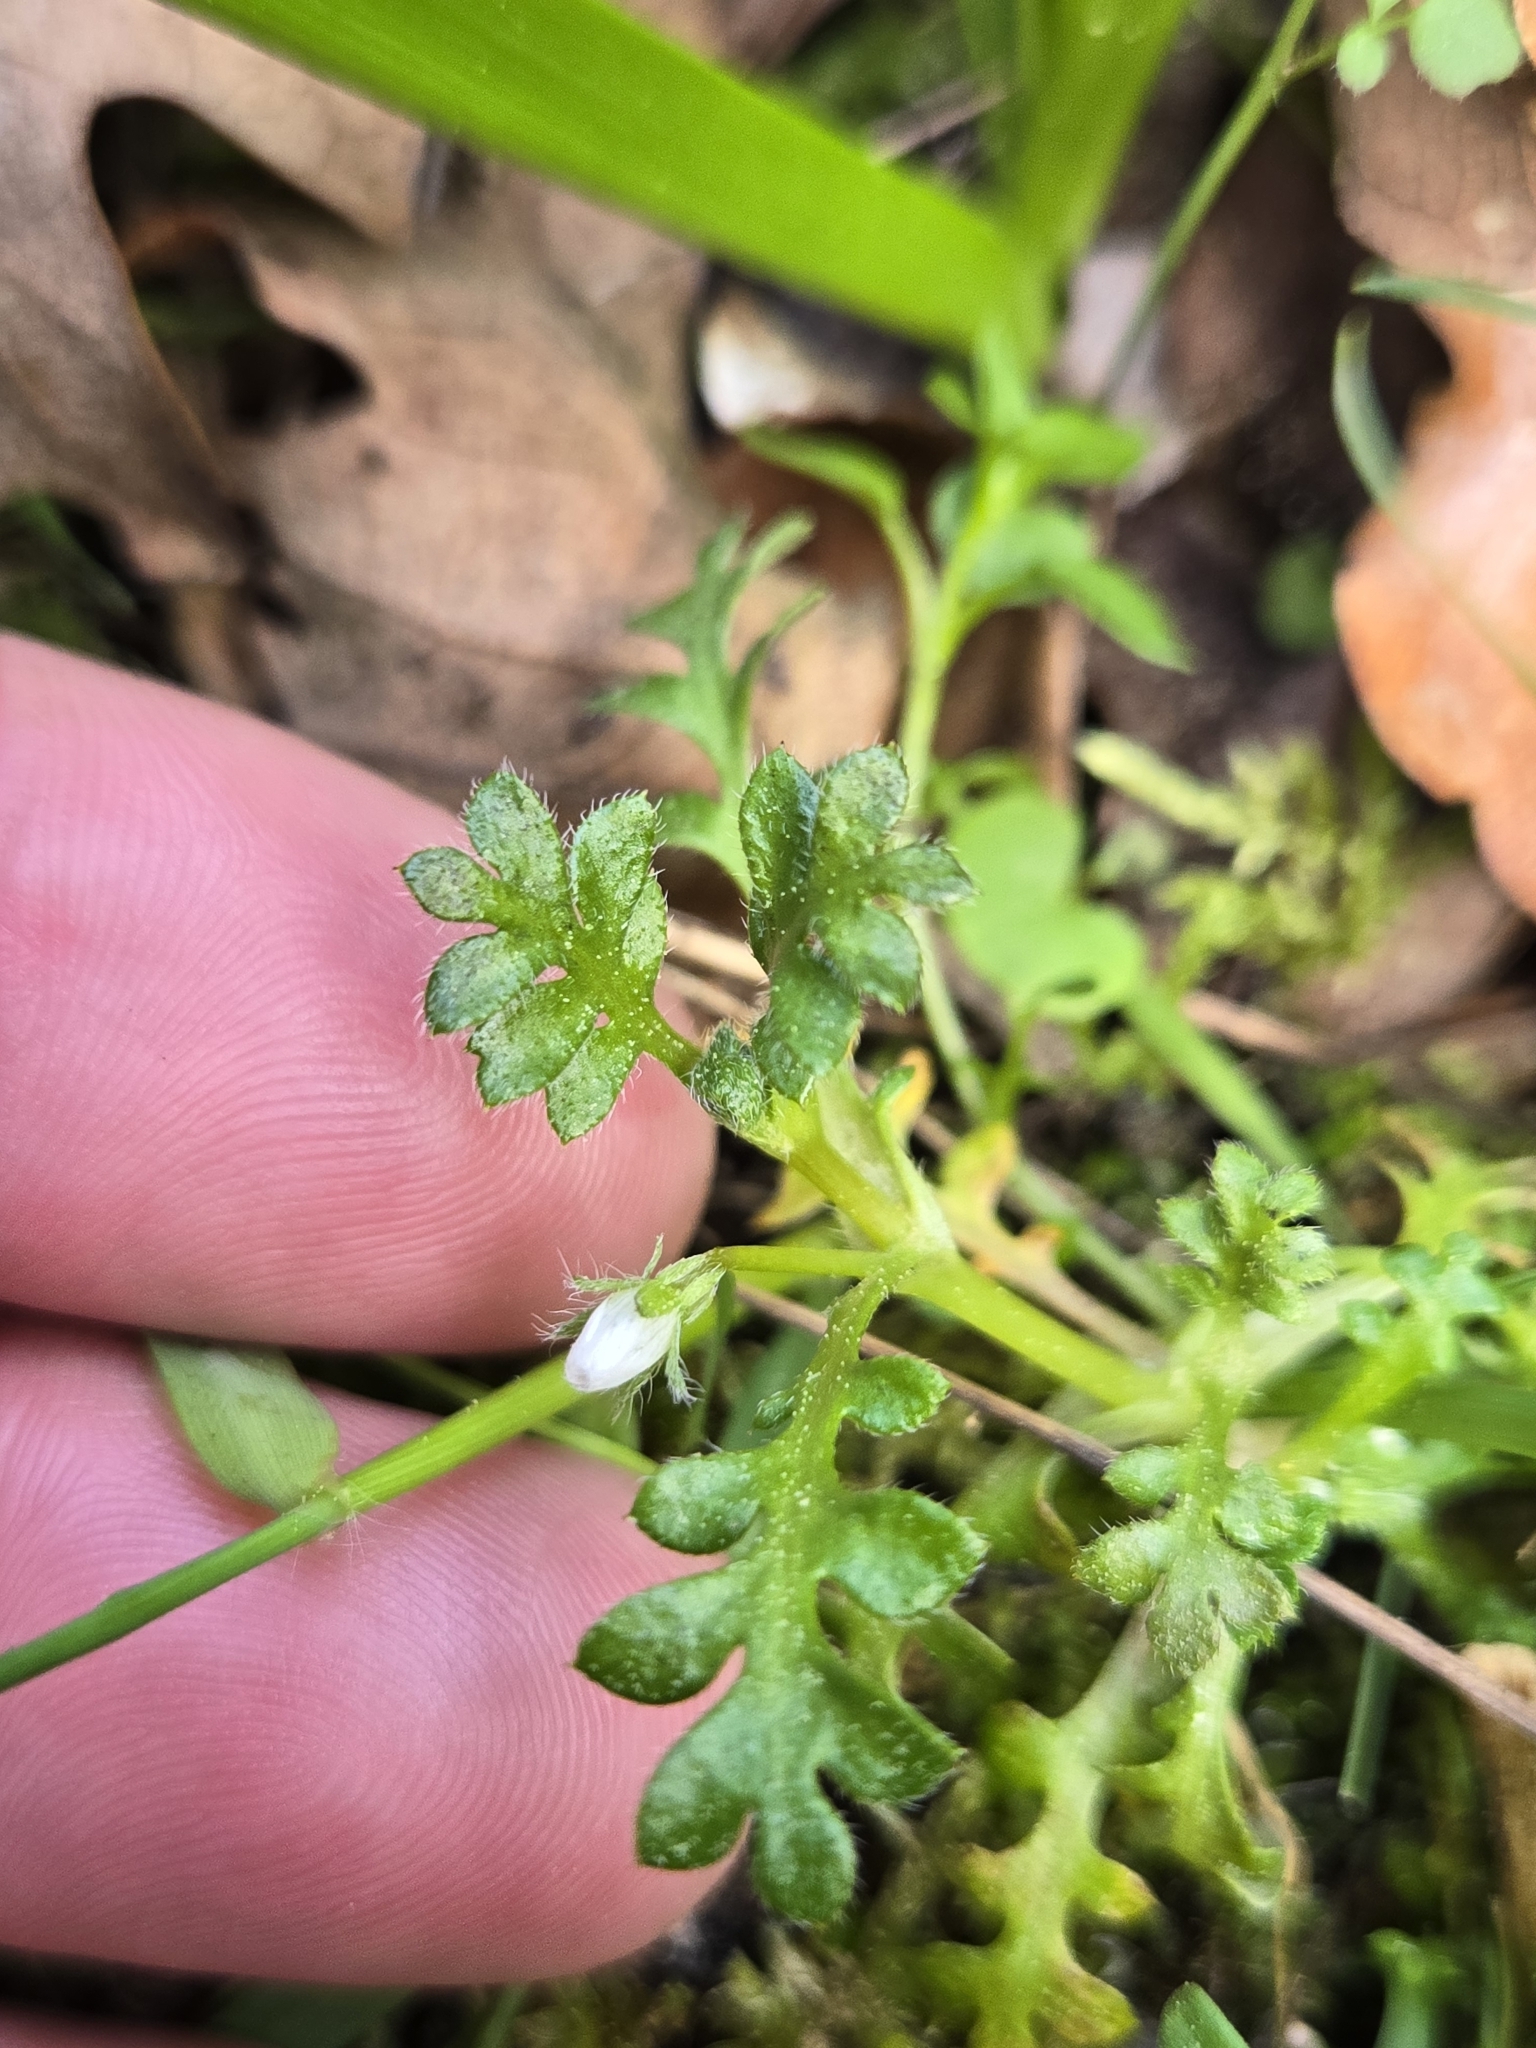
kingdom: Plantae
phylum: Tracheophyta
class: Magnoliopsida
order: Boraginales
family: Hydrophyllaceae
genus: Nemophila
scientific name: Nemophila pedunculata
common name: Little-foot baby-blue-eyes
